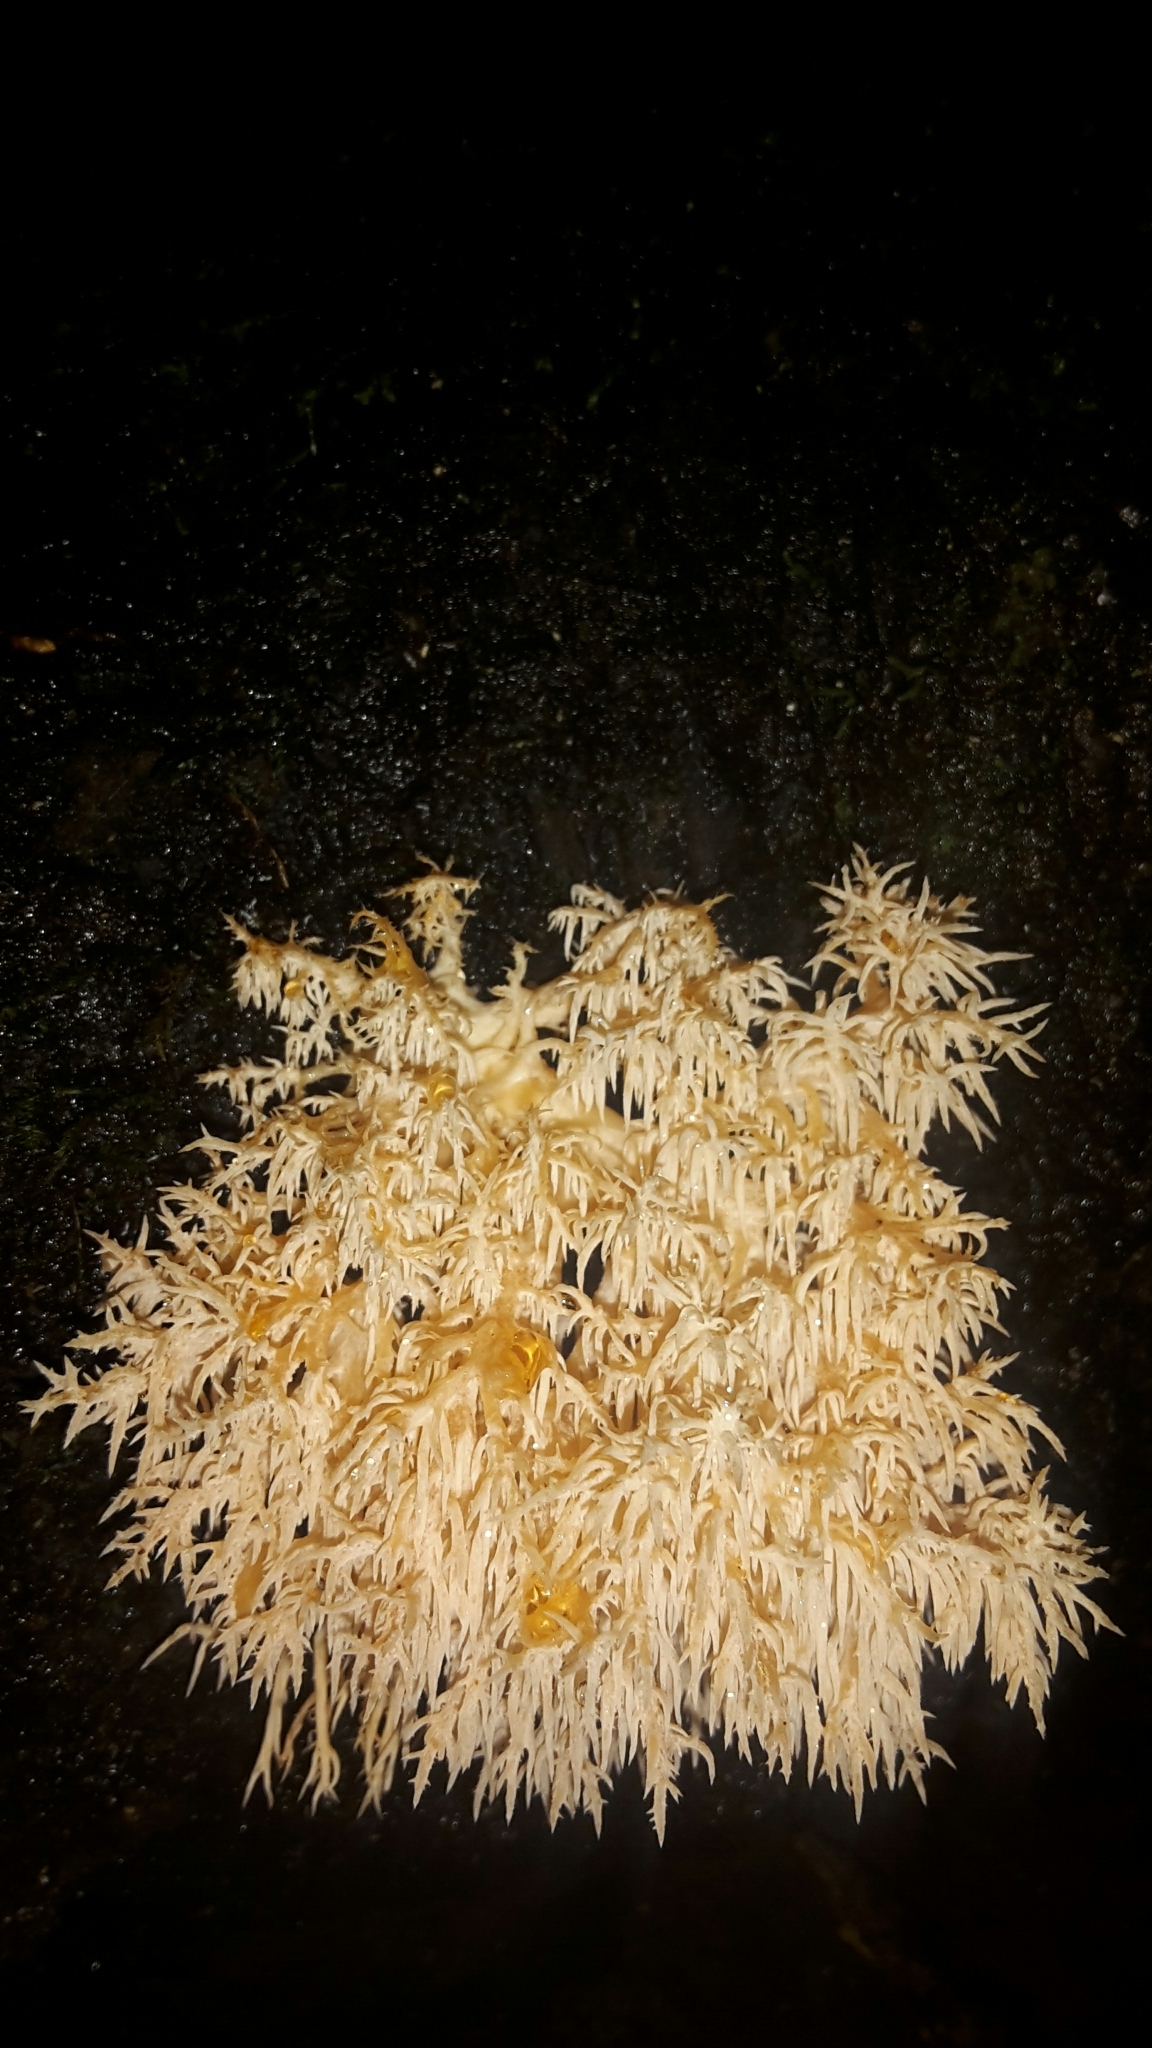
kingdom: Fungi
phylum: Basidiomycota
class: Agaricomycetes
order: Russulales
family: Hericiaceae
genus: Hericium
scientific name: Hericium novae-zealandiae
